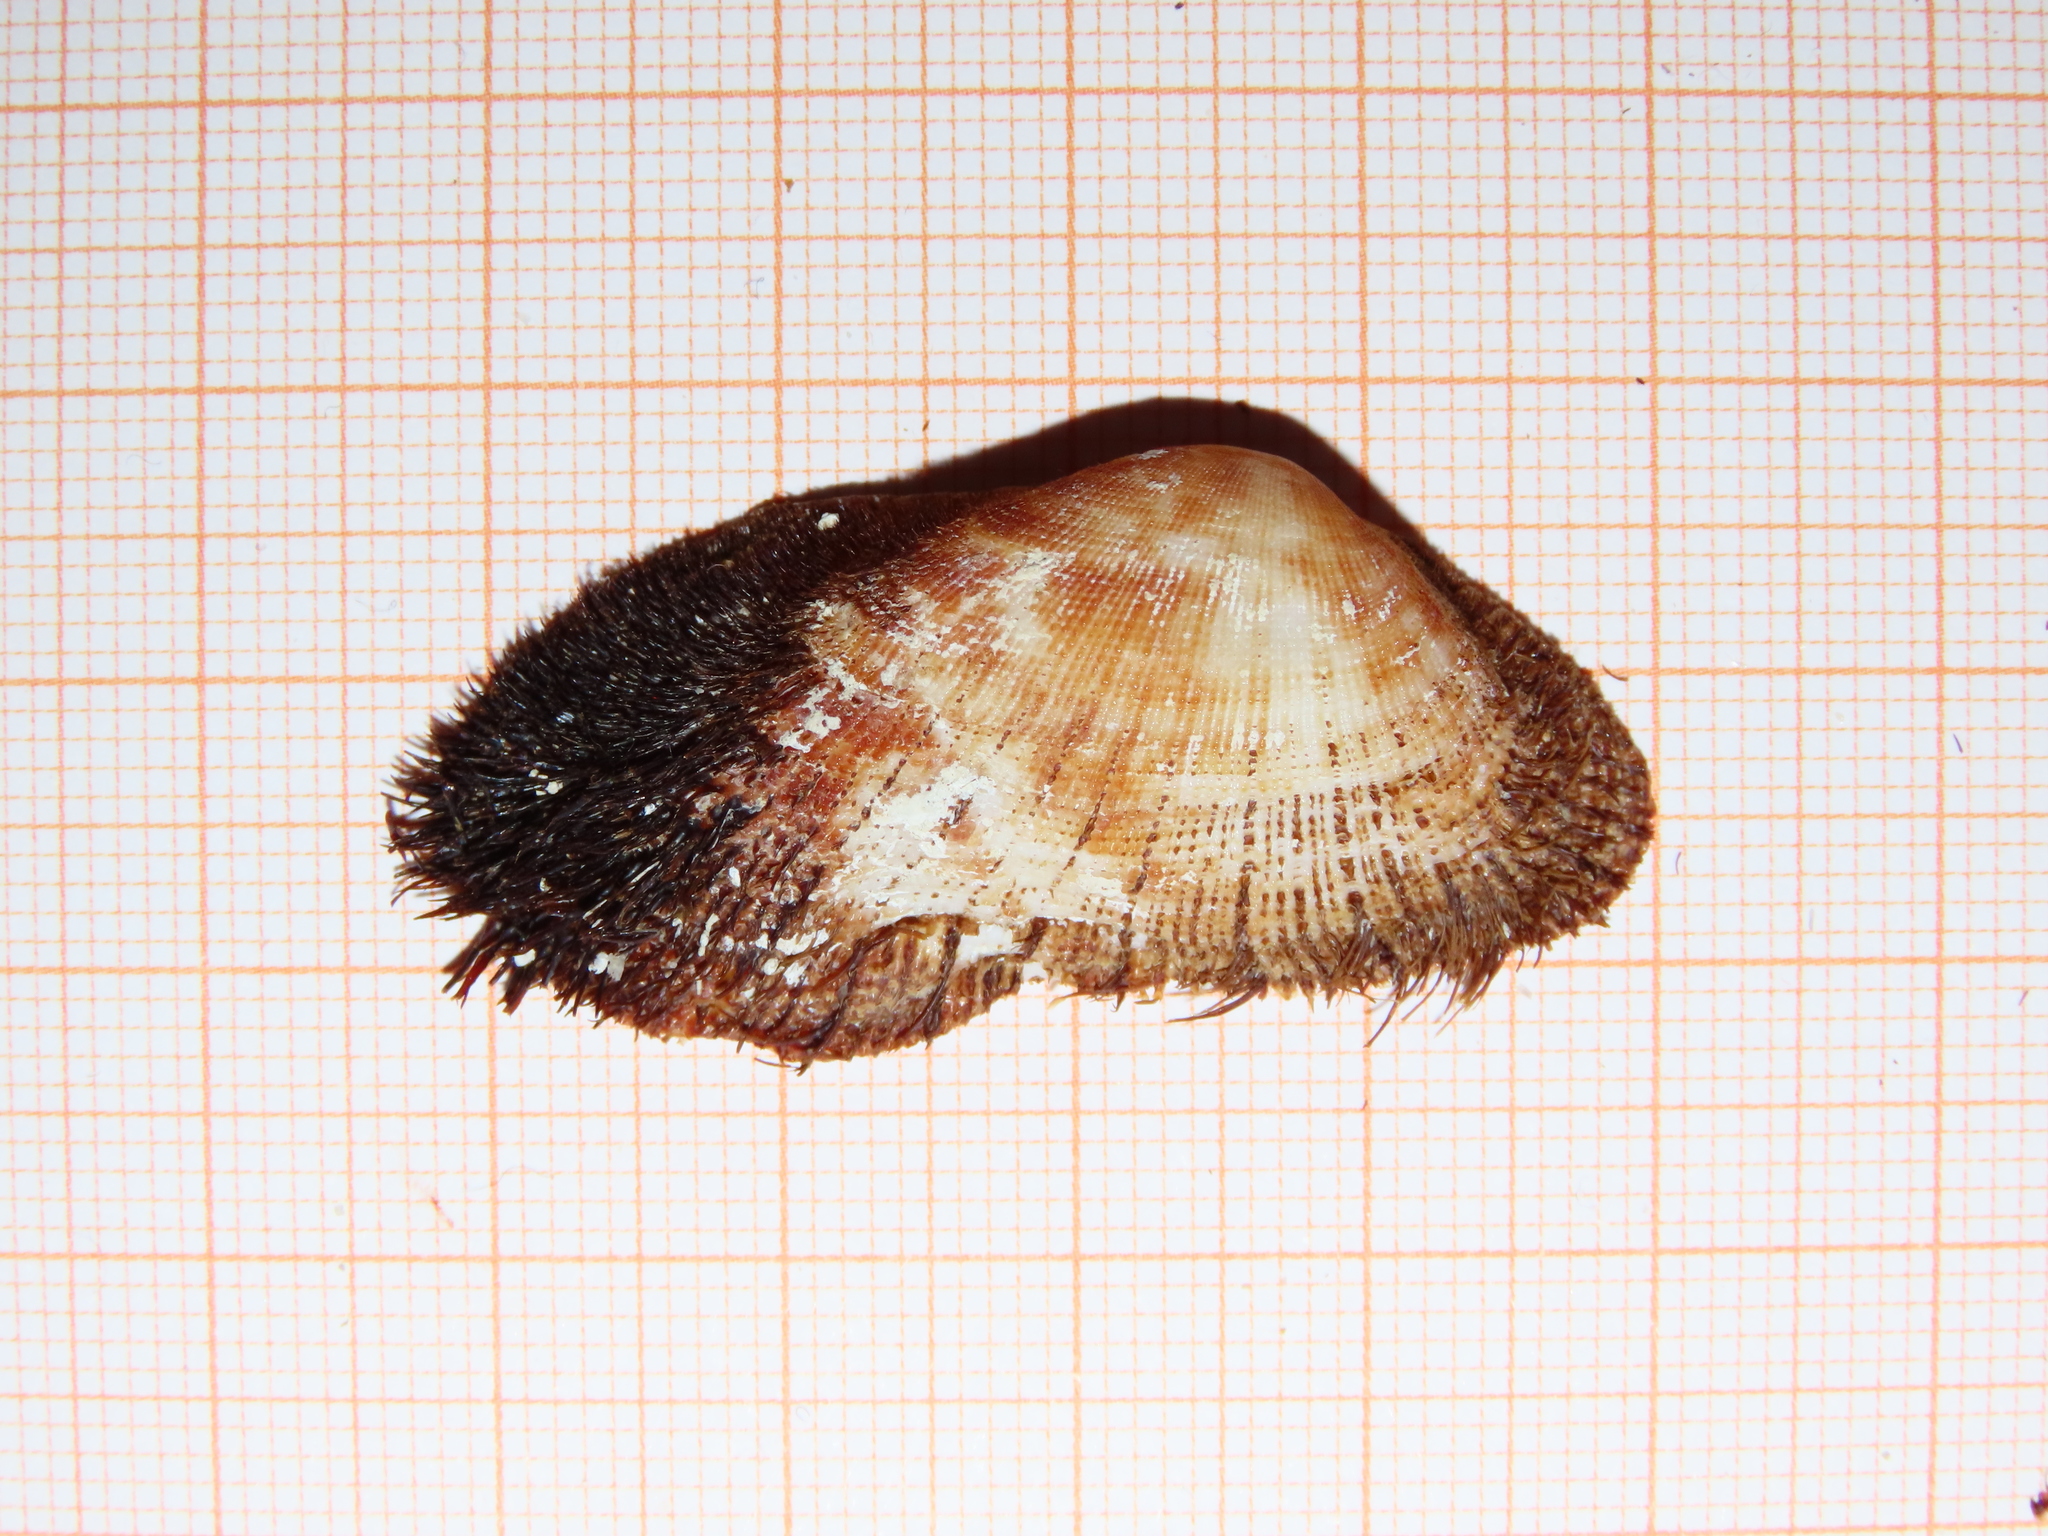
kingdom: Animalia
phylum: Mollusca
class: Bivalvia
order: Arcida
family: Arcidae
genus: Barbatia
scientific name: Barbatia barbata
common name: Bearded ark
